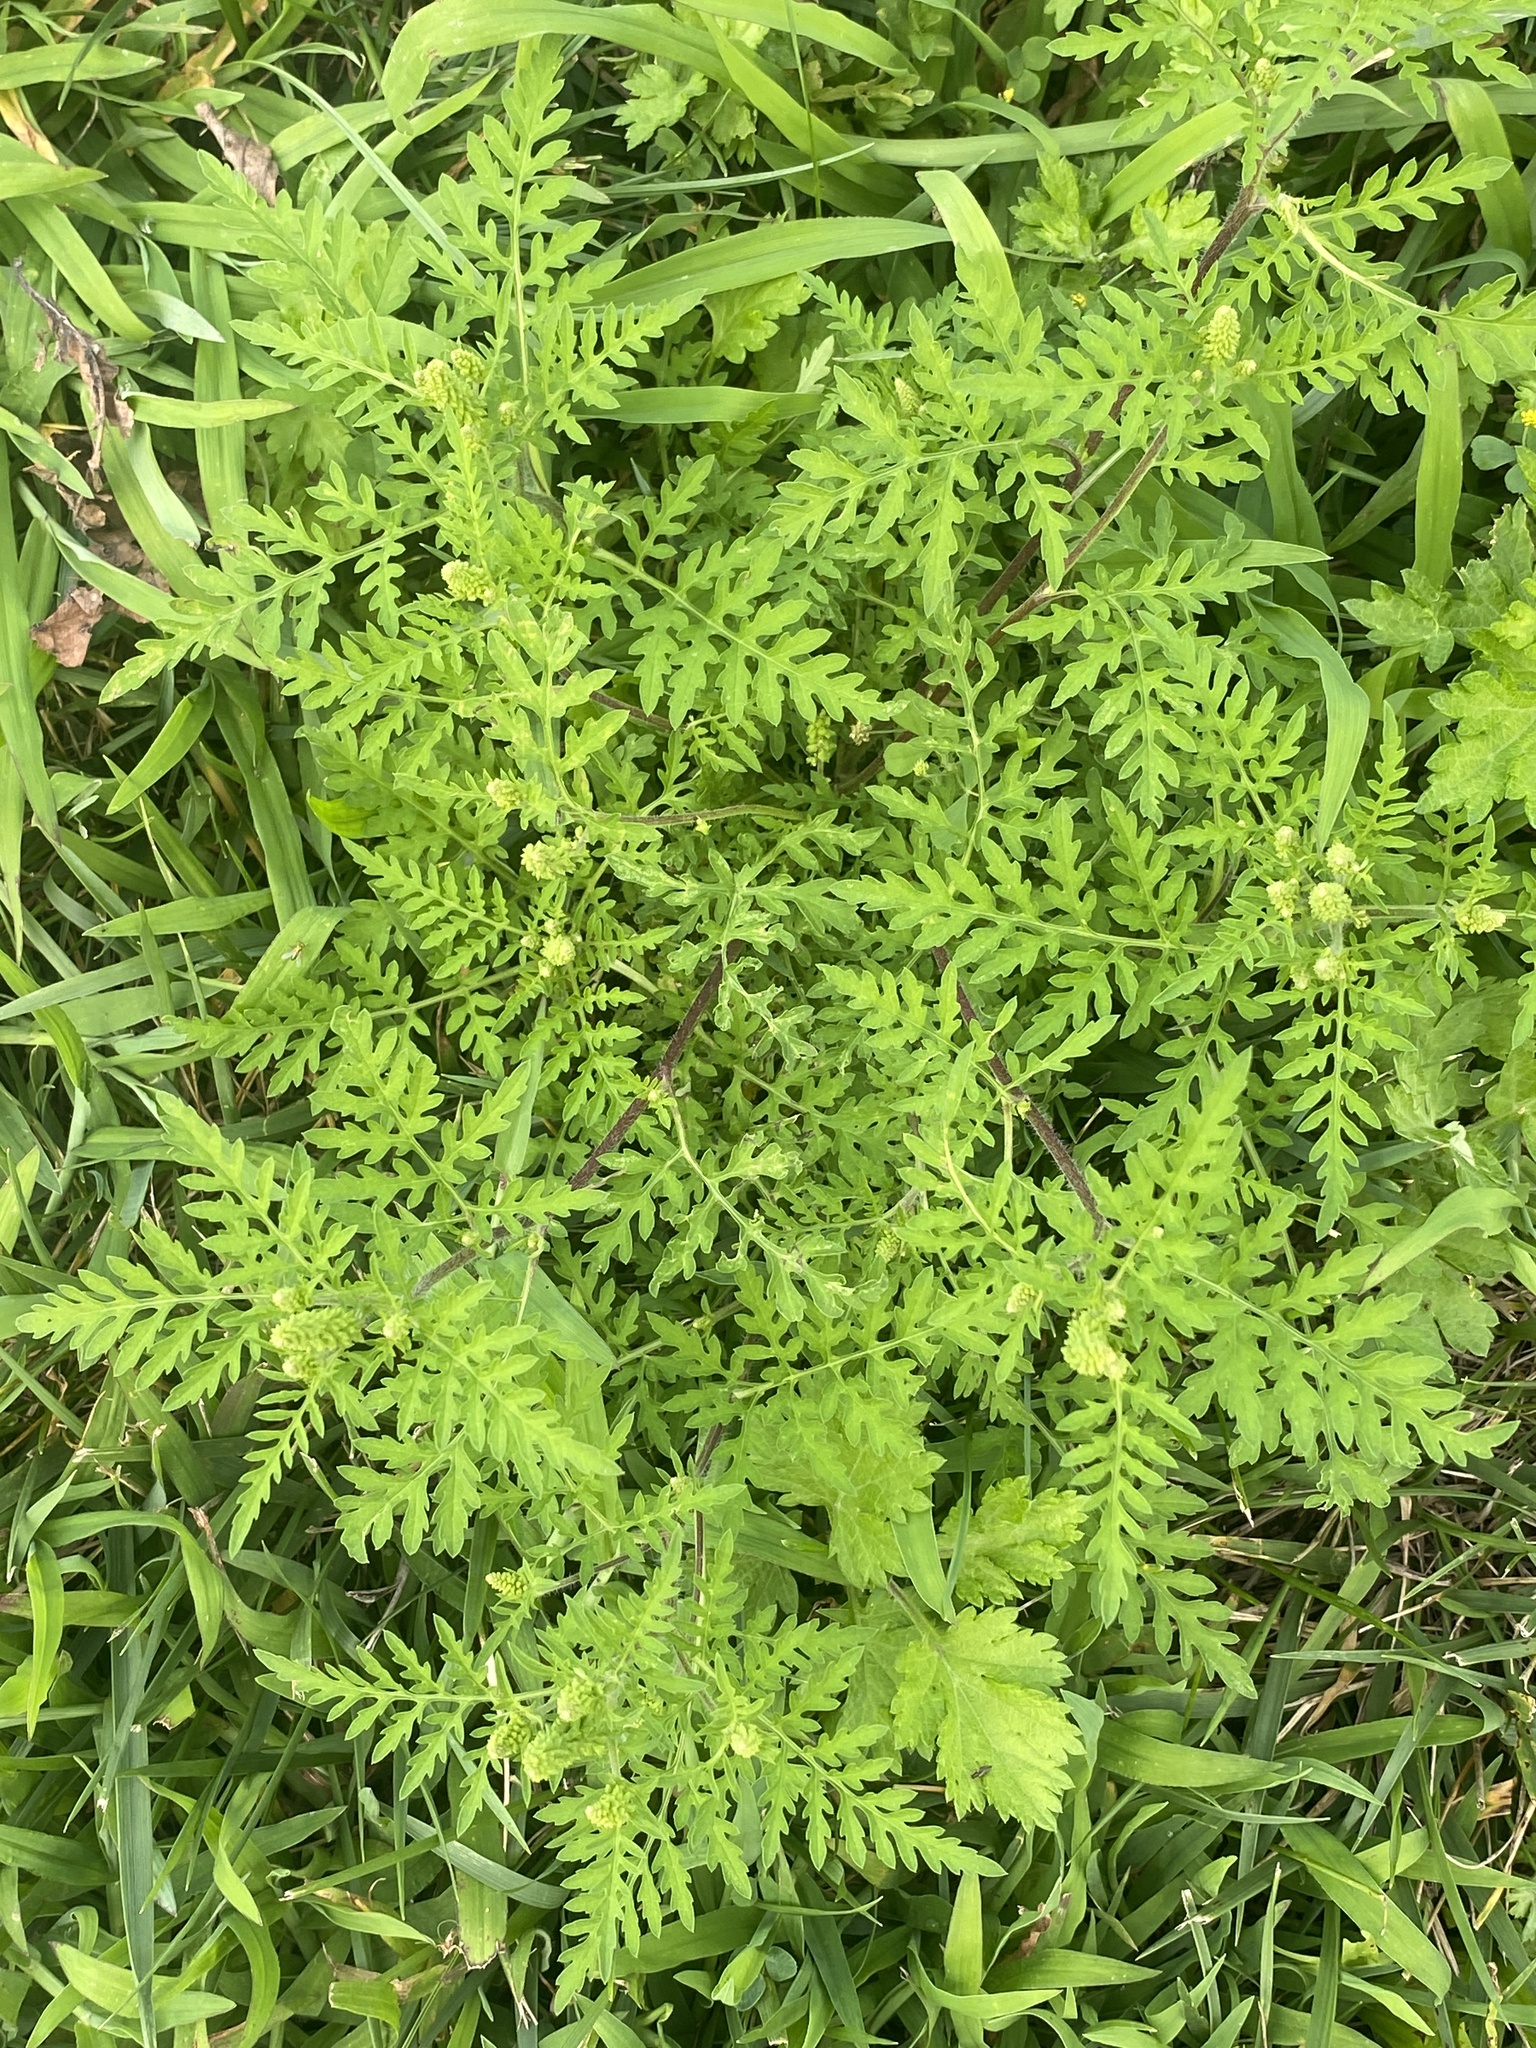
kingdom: Plantae
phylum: Tracheophyta
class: Magnoliopsida
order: Asterales
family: Asteraceae
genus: Ambrosia
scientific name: Ambrosia artemisiifolia
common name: Annual ragweed
